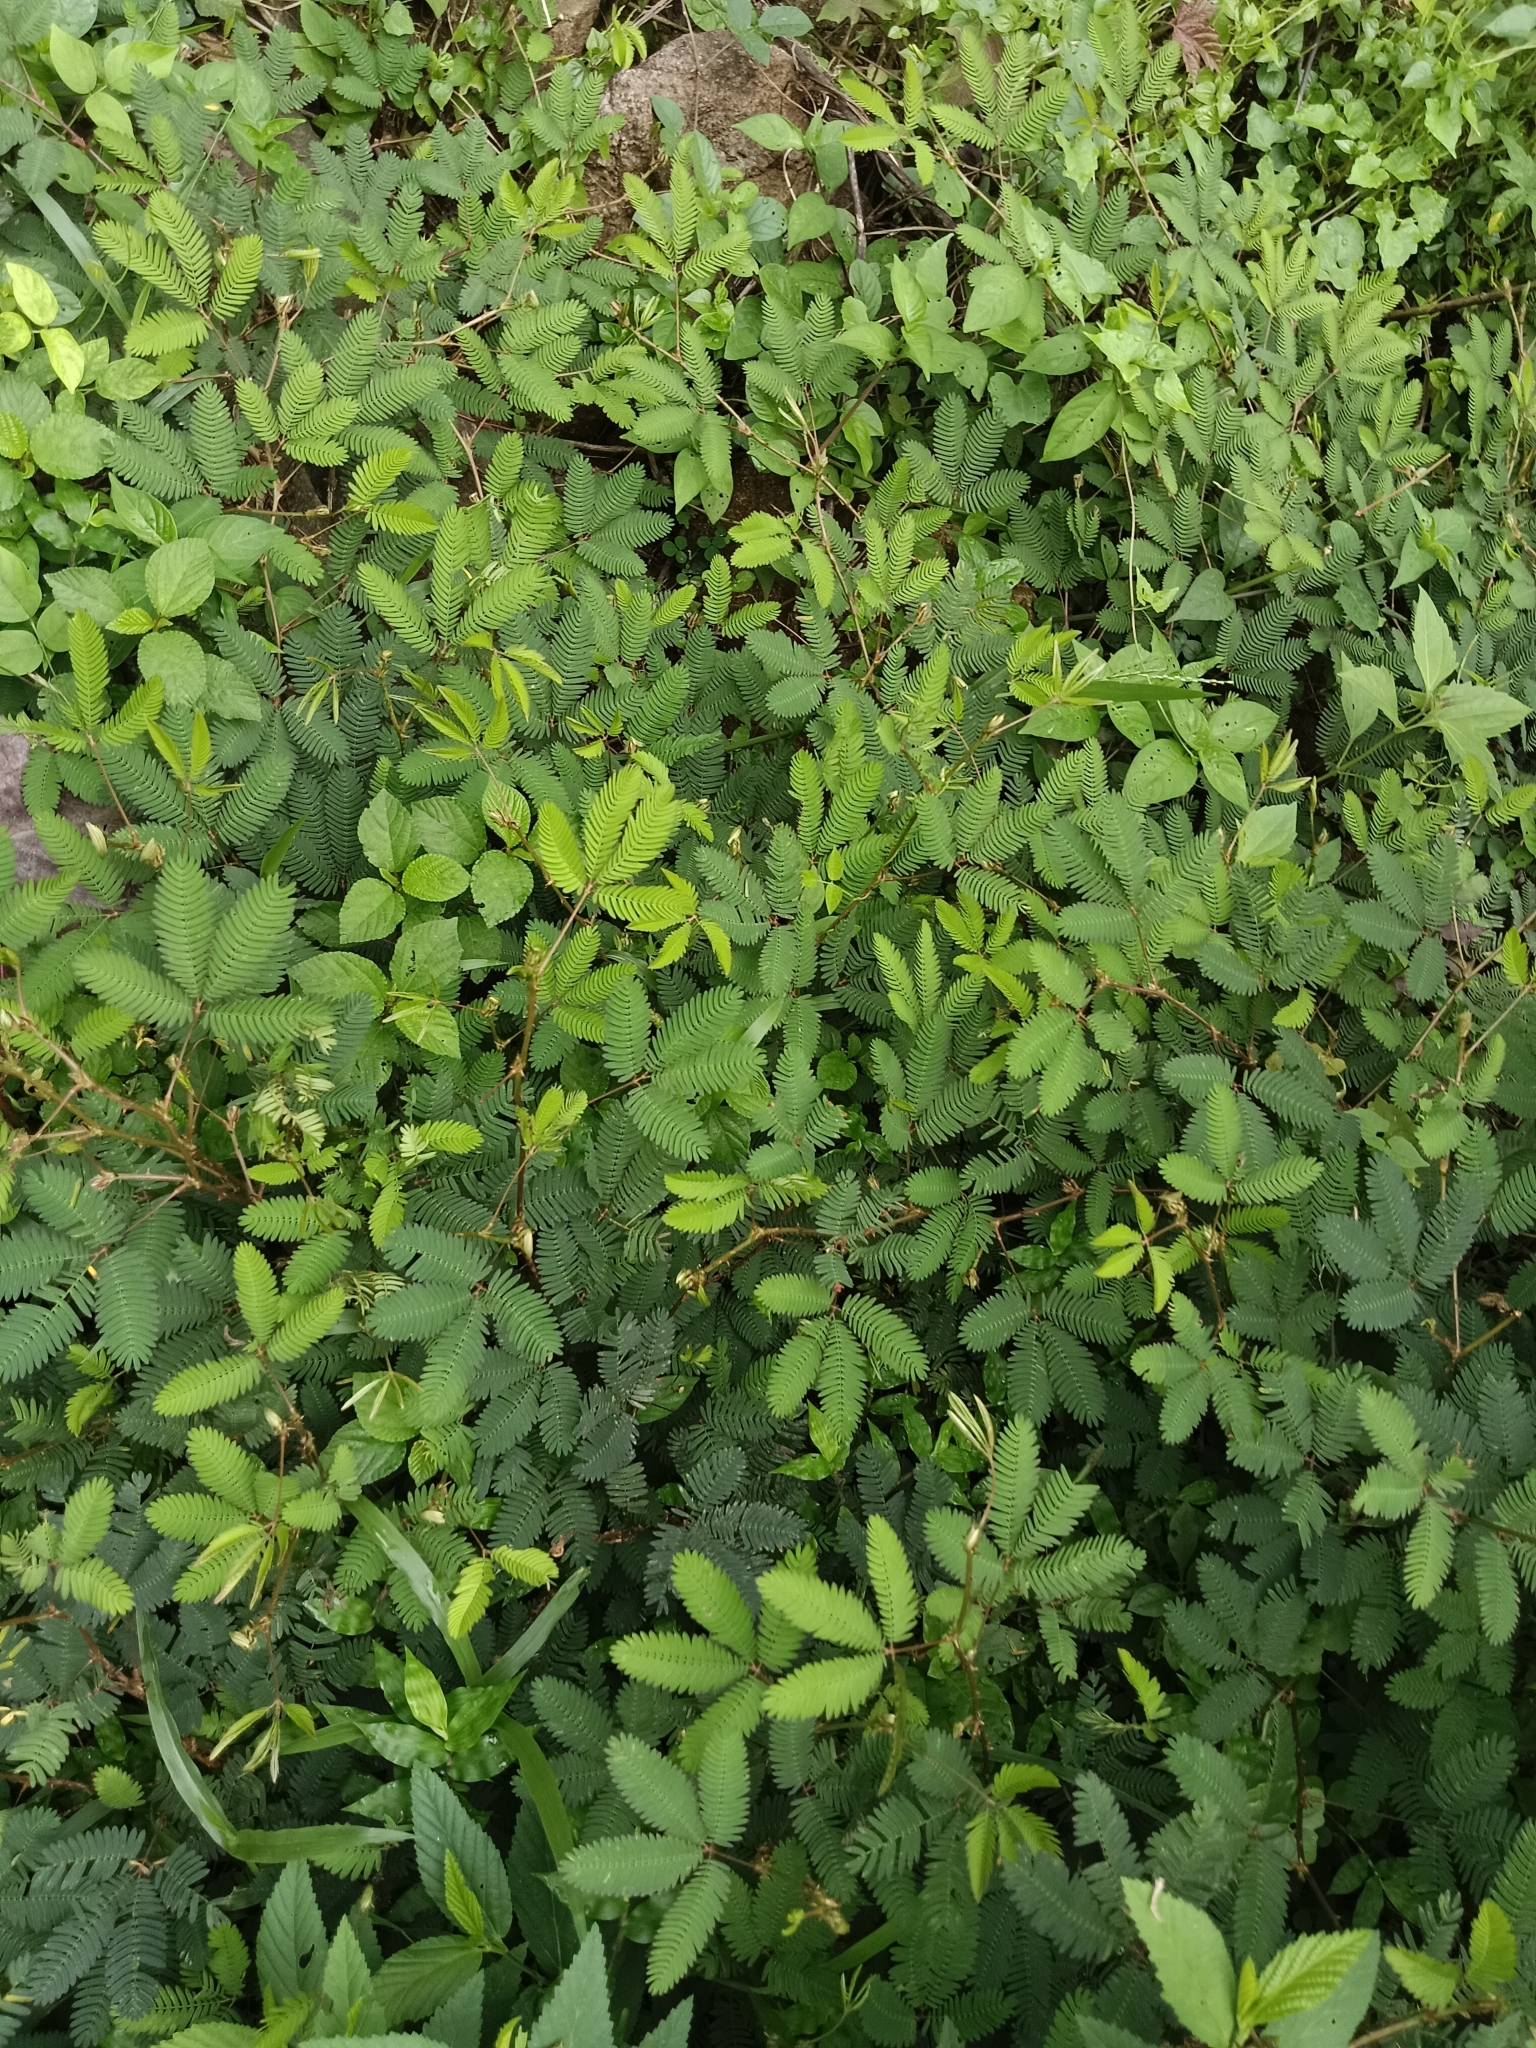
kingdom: Plantae
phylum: Tracheophyta
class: Magnoliopsida
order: Fabales
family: Fabaceae
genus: Mimosa
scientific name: Mimosa pudica
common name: Sensitive plant
